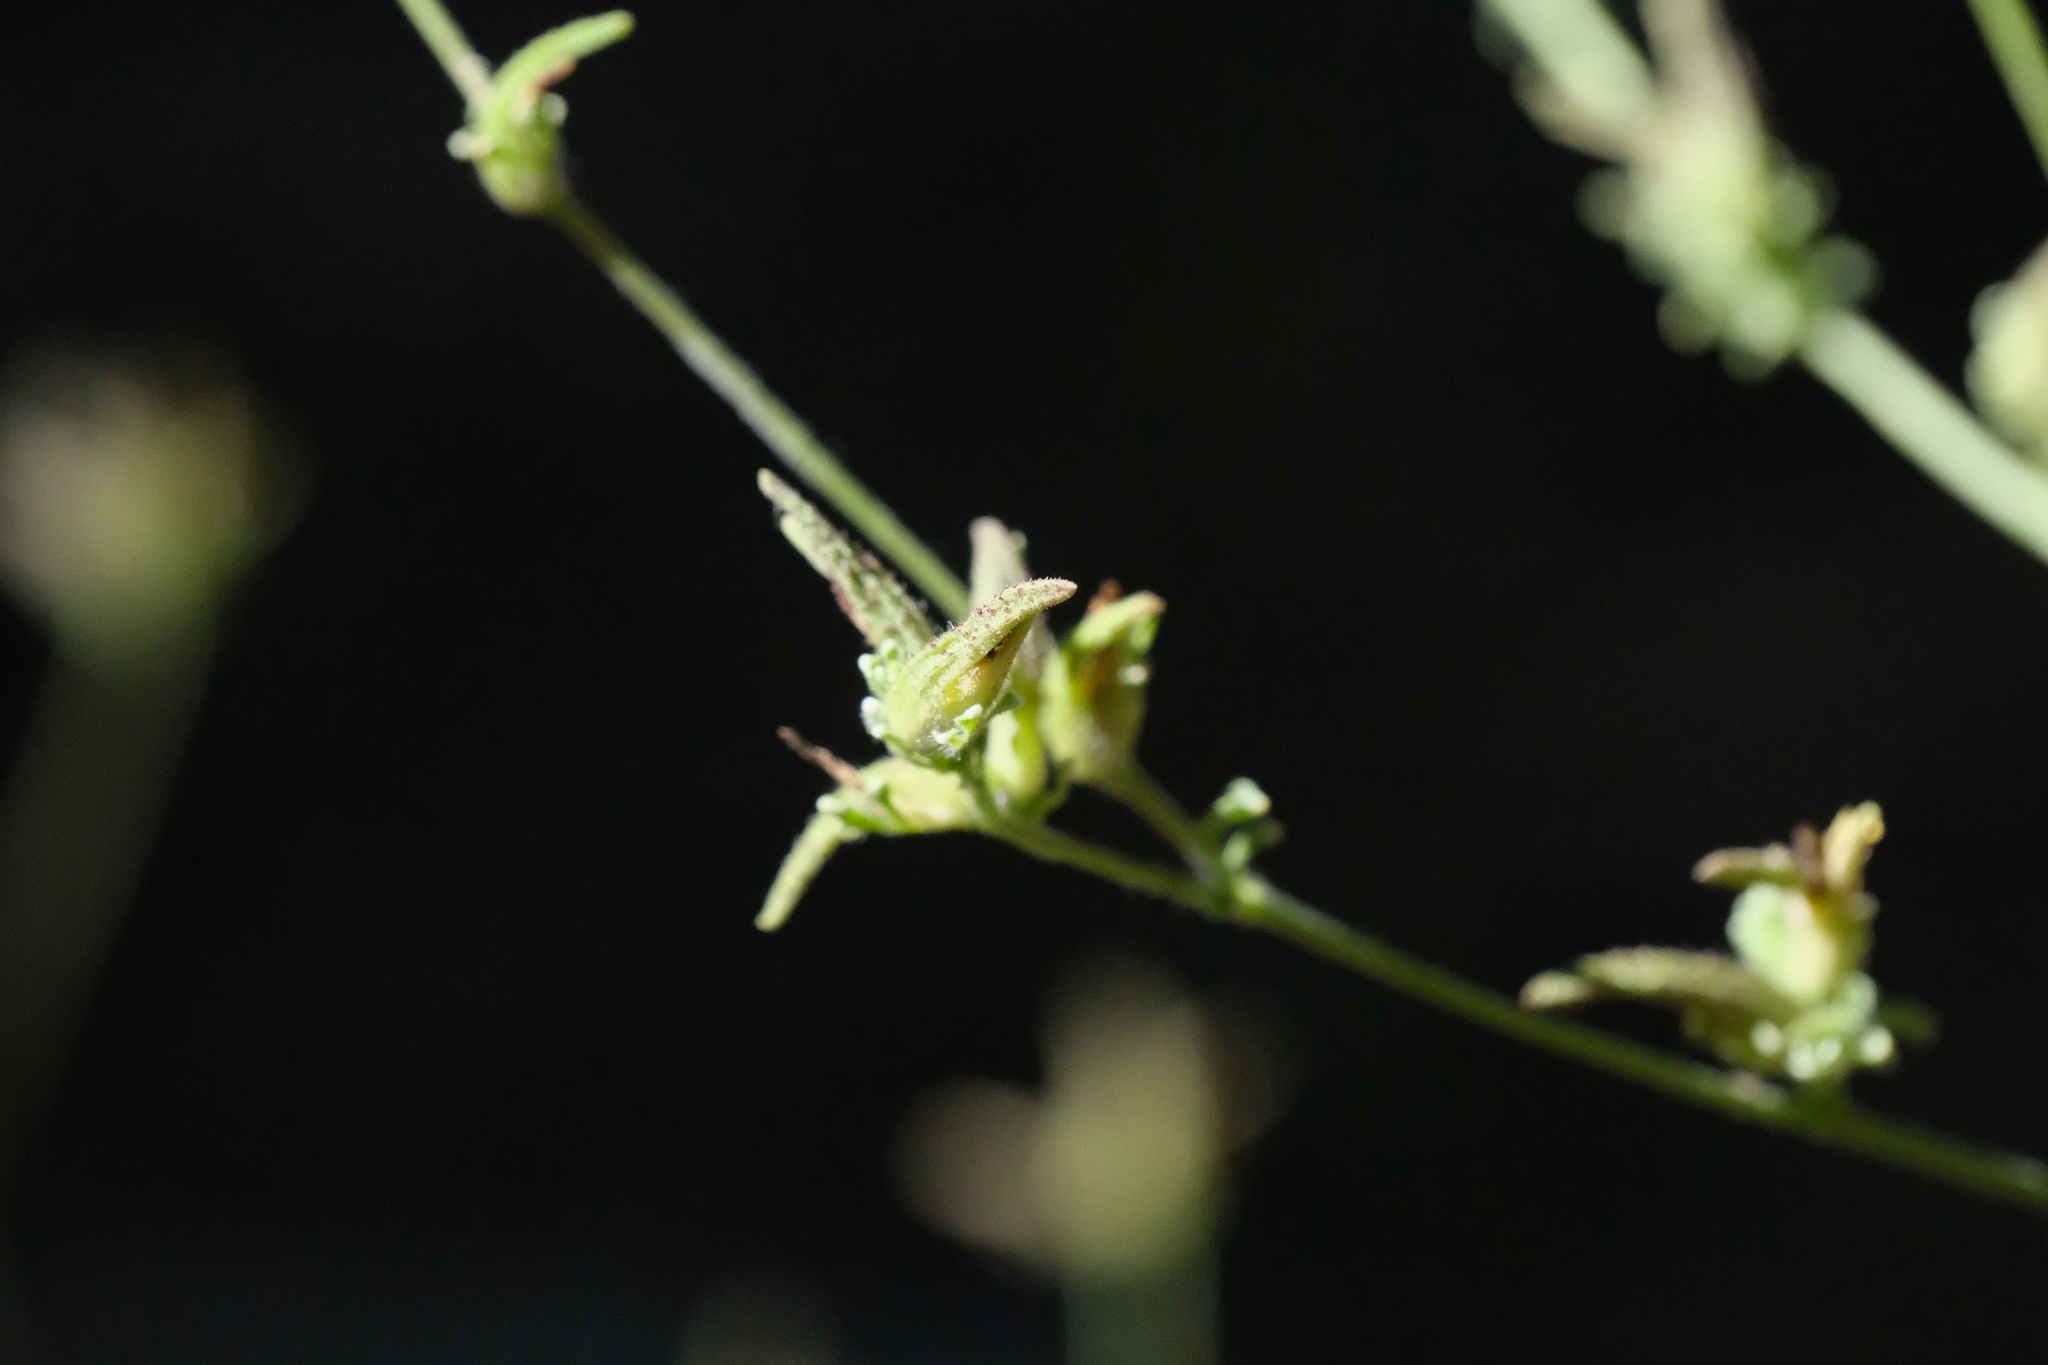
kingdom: Plantae
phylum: Tracheophyta
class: Magnoliopsida
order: Lamiales
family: Orobanchaceae
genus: Cordylanthus
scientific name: Cordylanthus rigidus
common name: Stiff-branch bird's-beak
